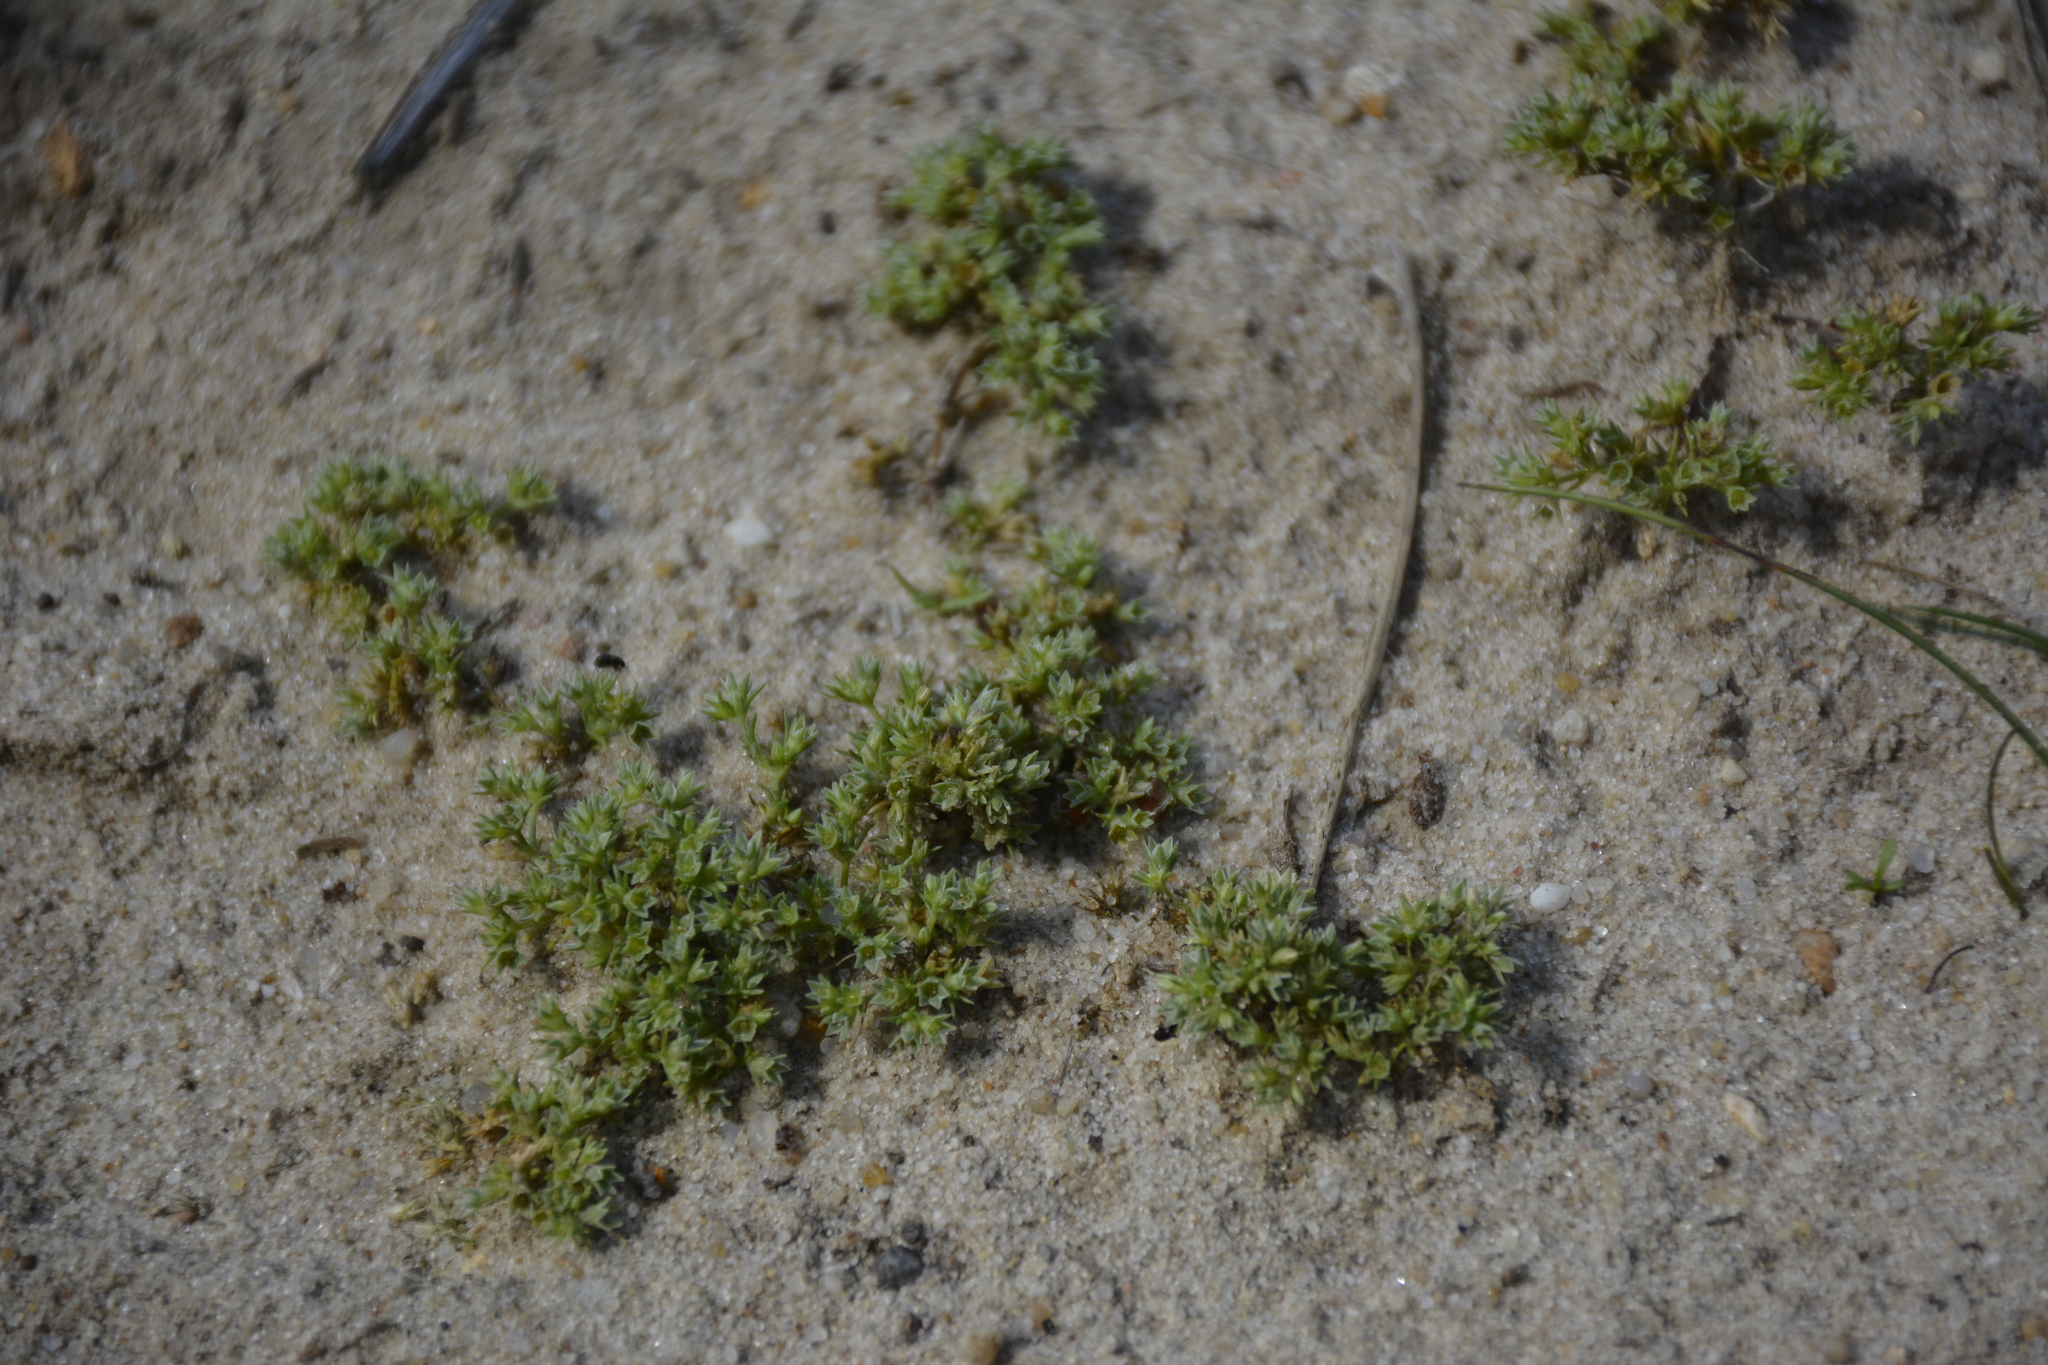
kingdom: Plantae
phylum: Tracheophyta
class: Magnoliopsida
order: Caryophyllales
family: Caryophyllaceae
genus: Scleranthus
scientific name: Scleranthus annuus
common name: Annual knawel
